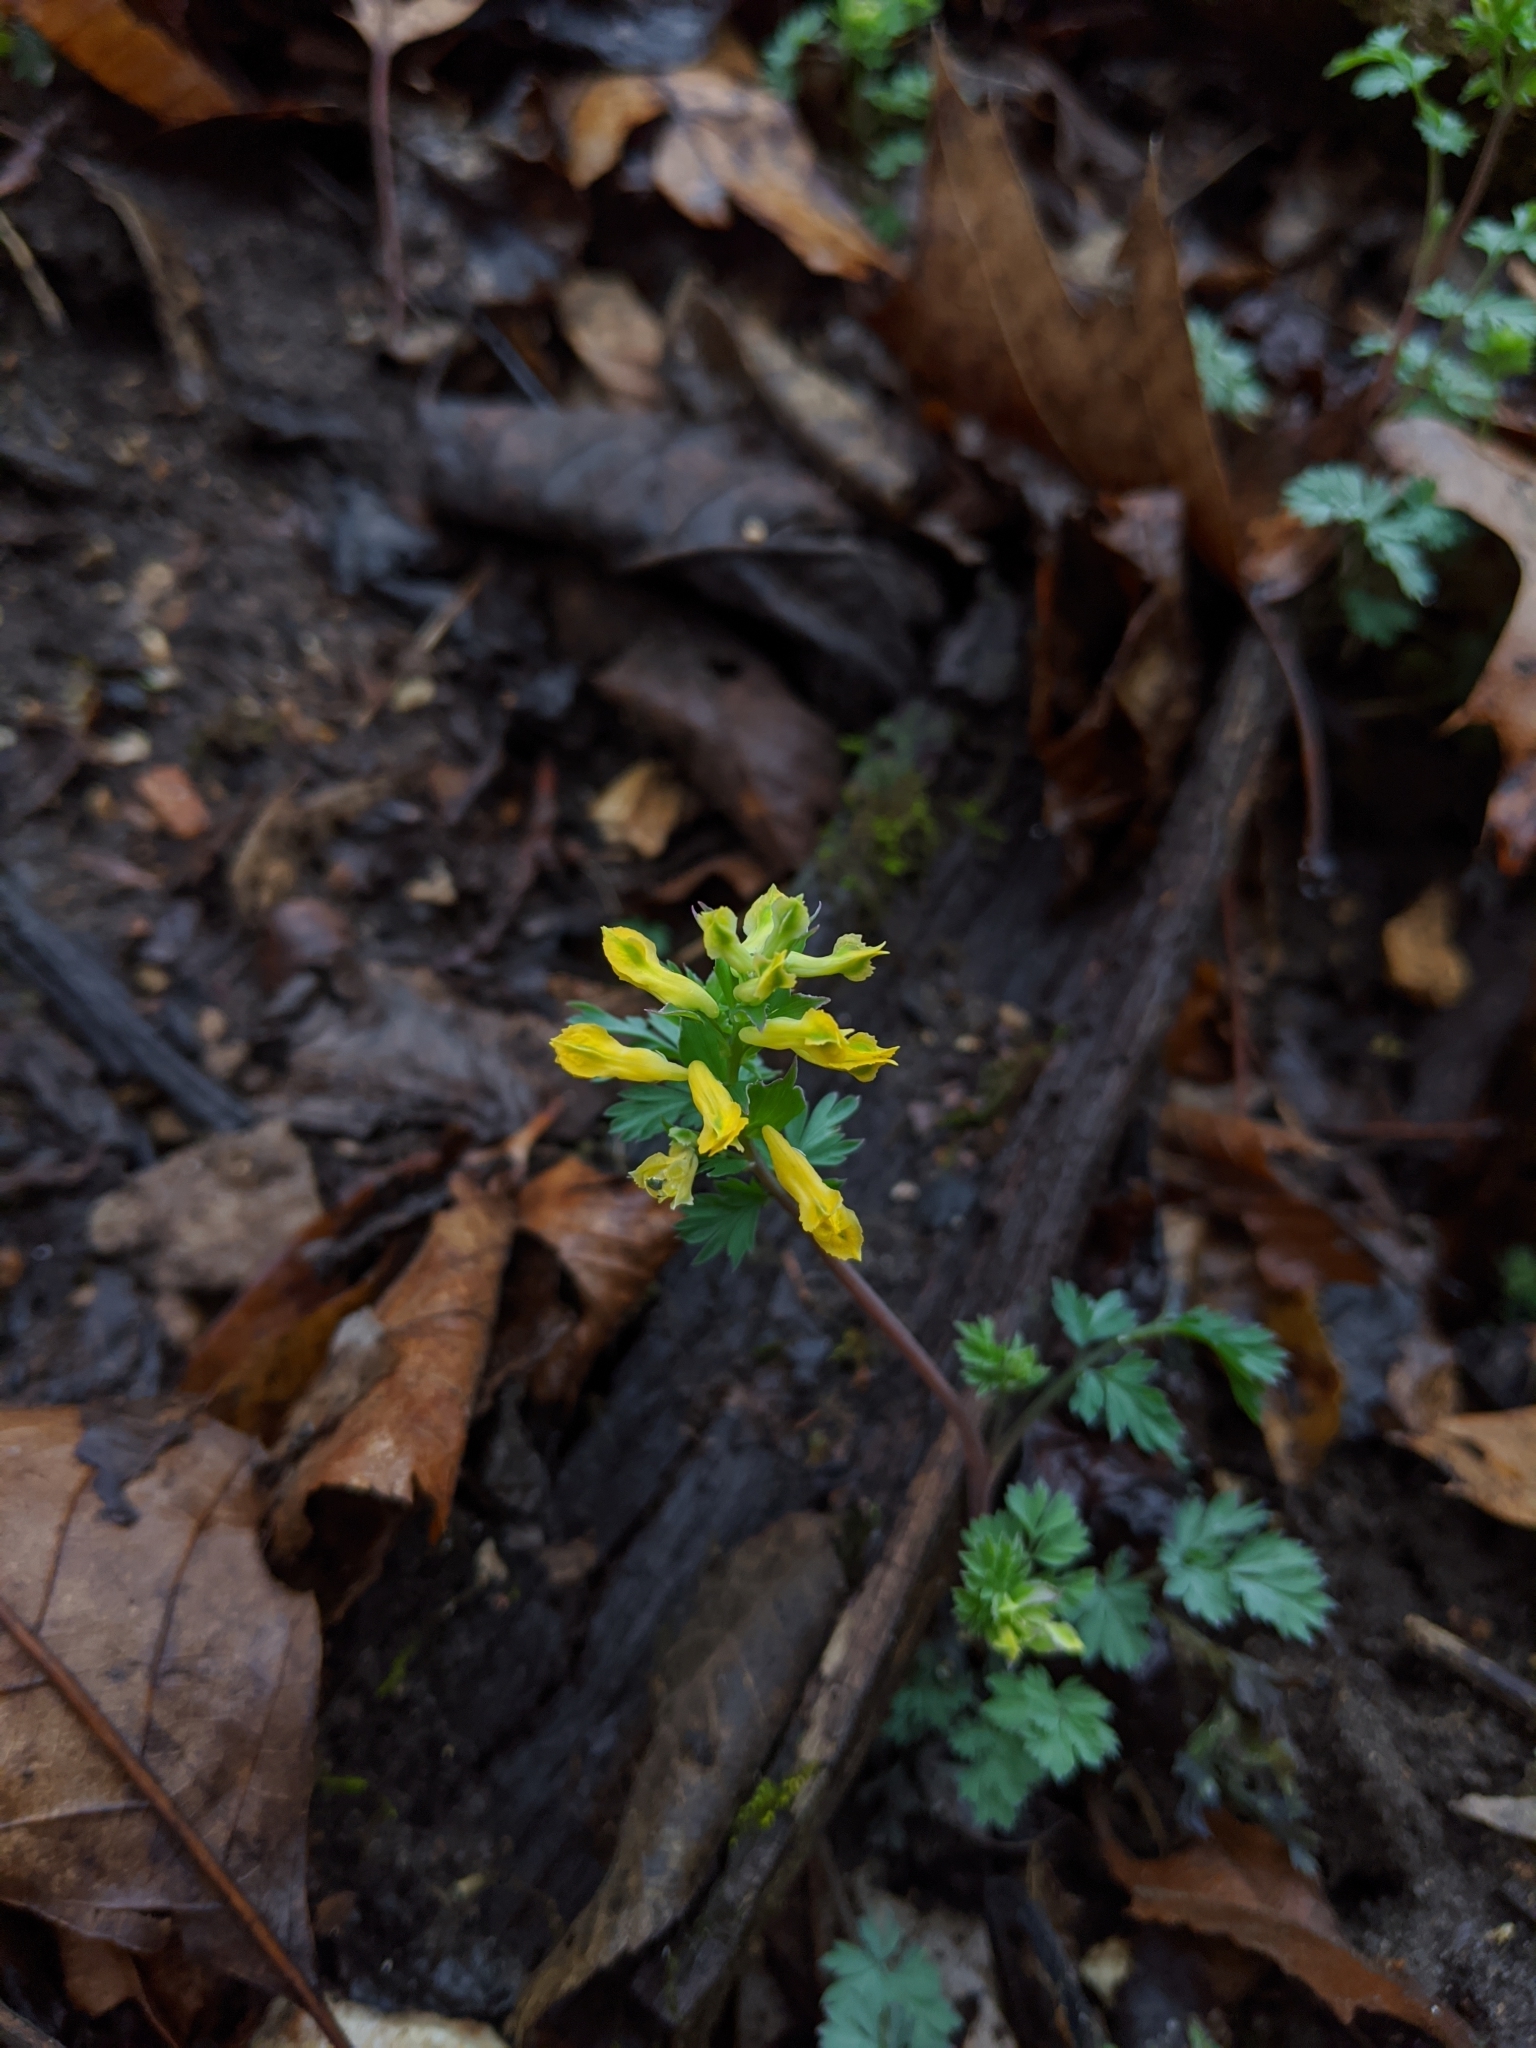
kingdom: Plantae
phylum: Tracheophyta
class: Magnoliopsida
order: Ranunculales
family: Papaveraceae
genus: Corydalis
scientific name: Corydalis flavula
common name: Yellow corydalis
